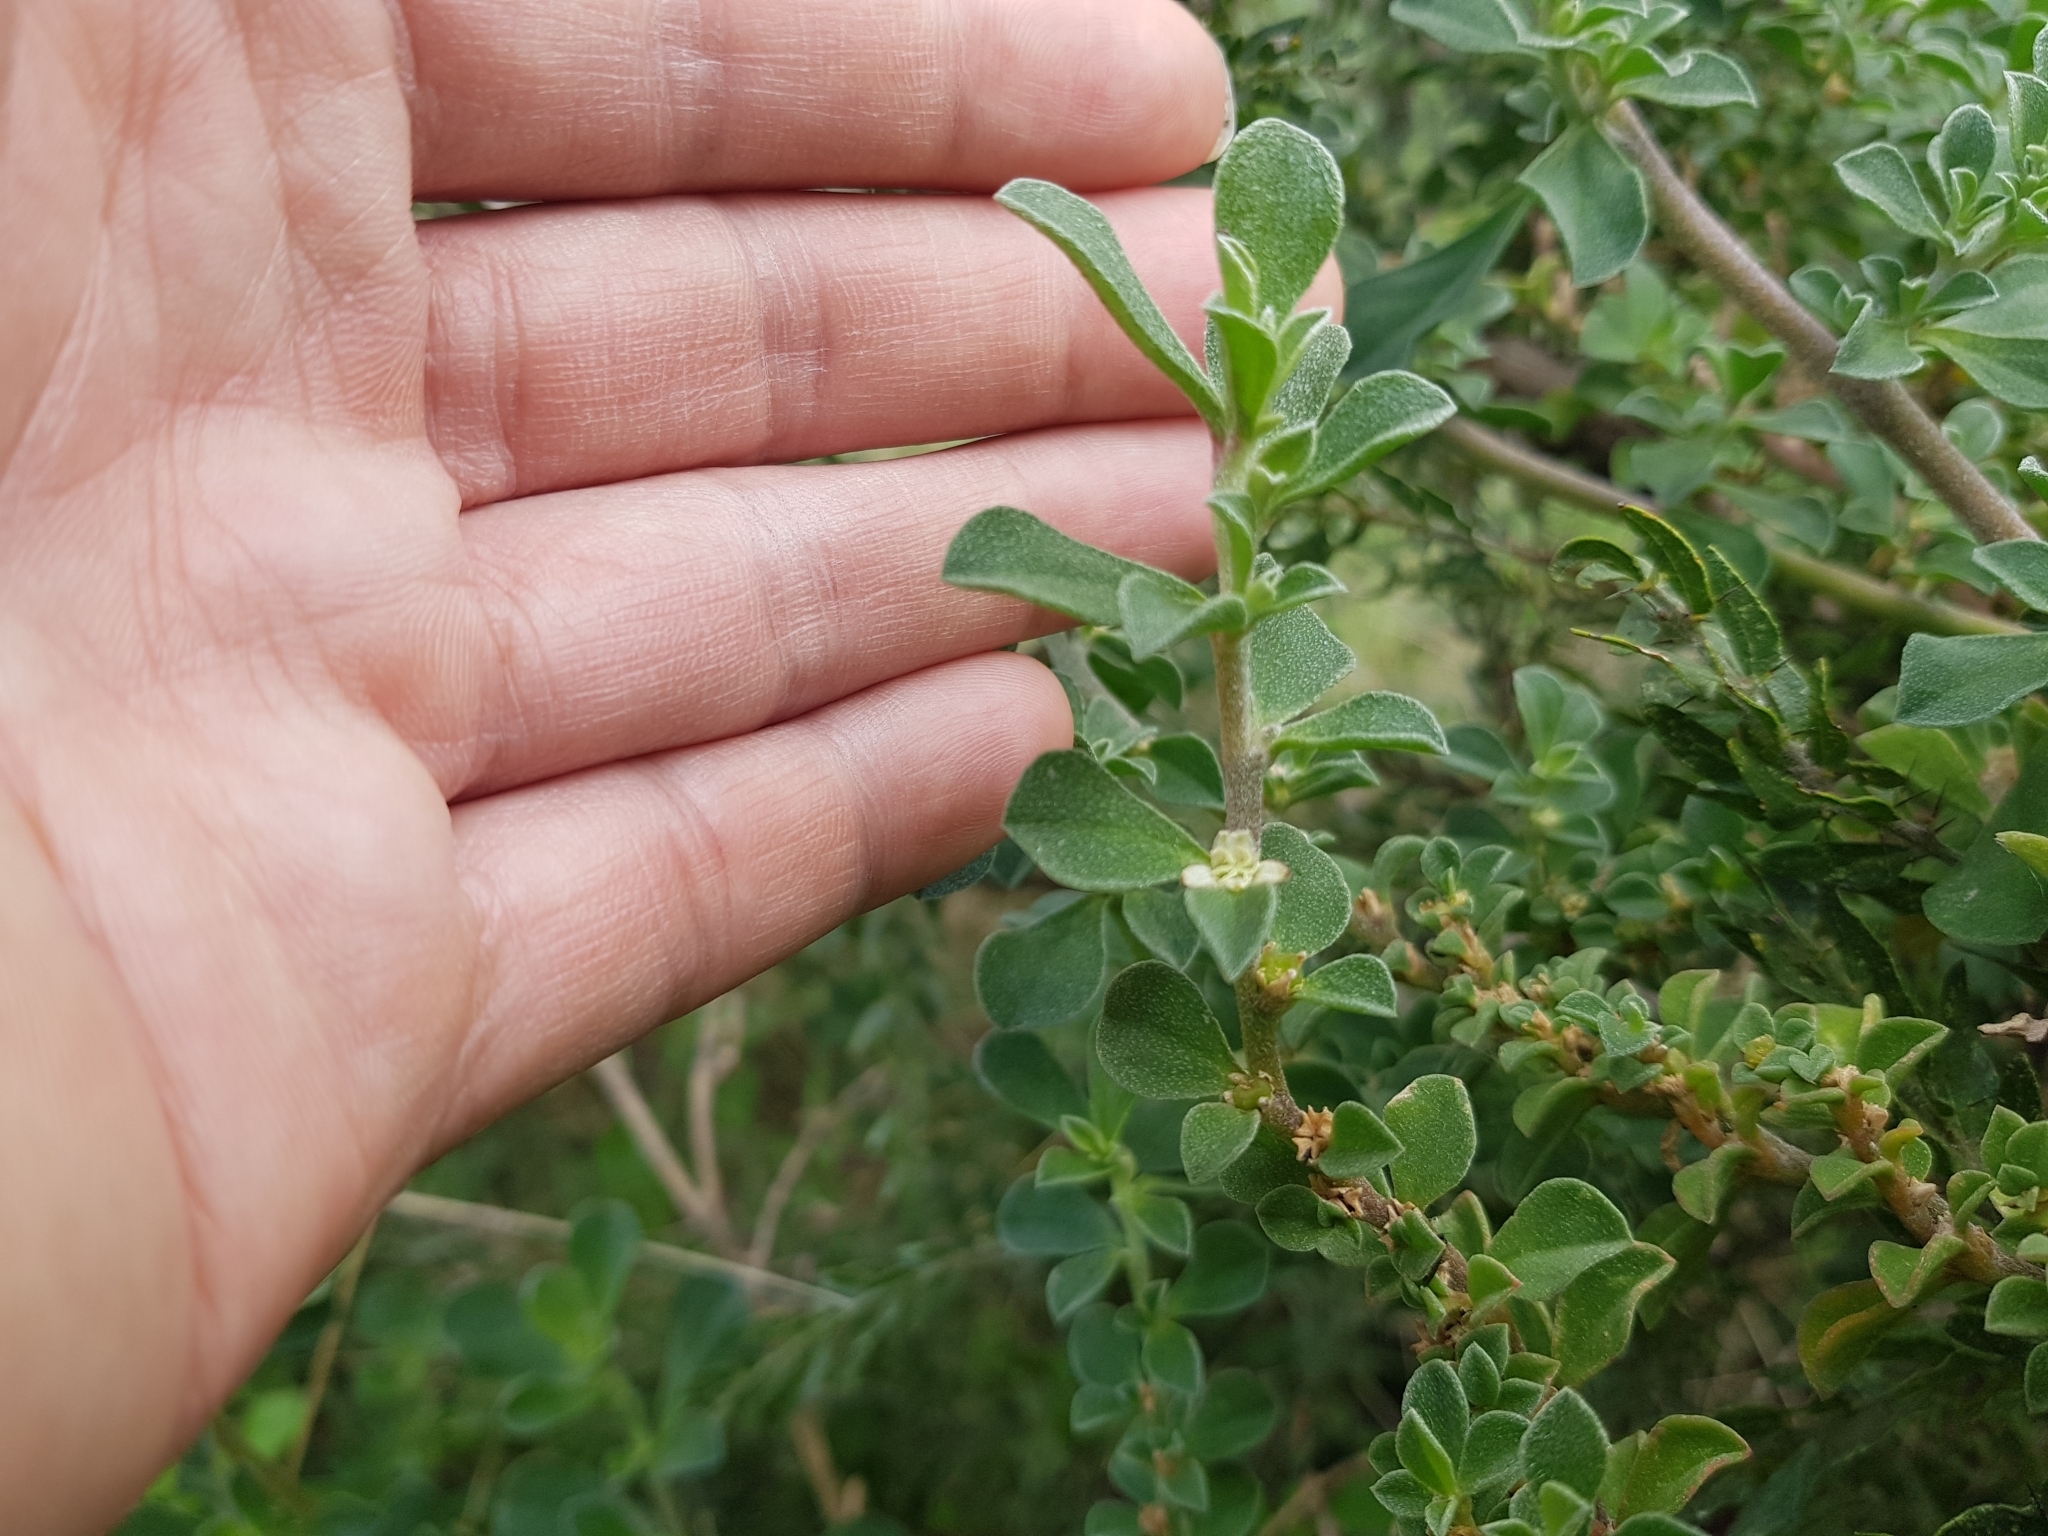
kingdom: Plantae
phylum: Tracheophyta
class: Magnoliopsida
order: Caryophyllales
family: Aizoaceae
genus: Aizoon
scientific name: Aizoon pubescens
